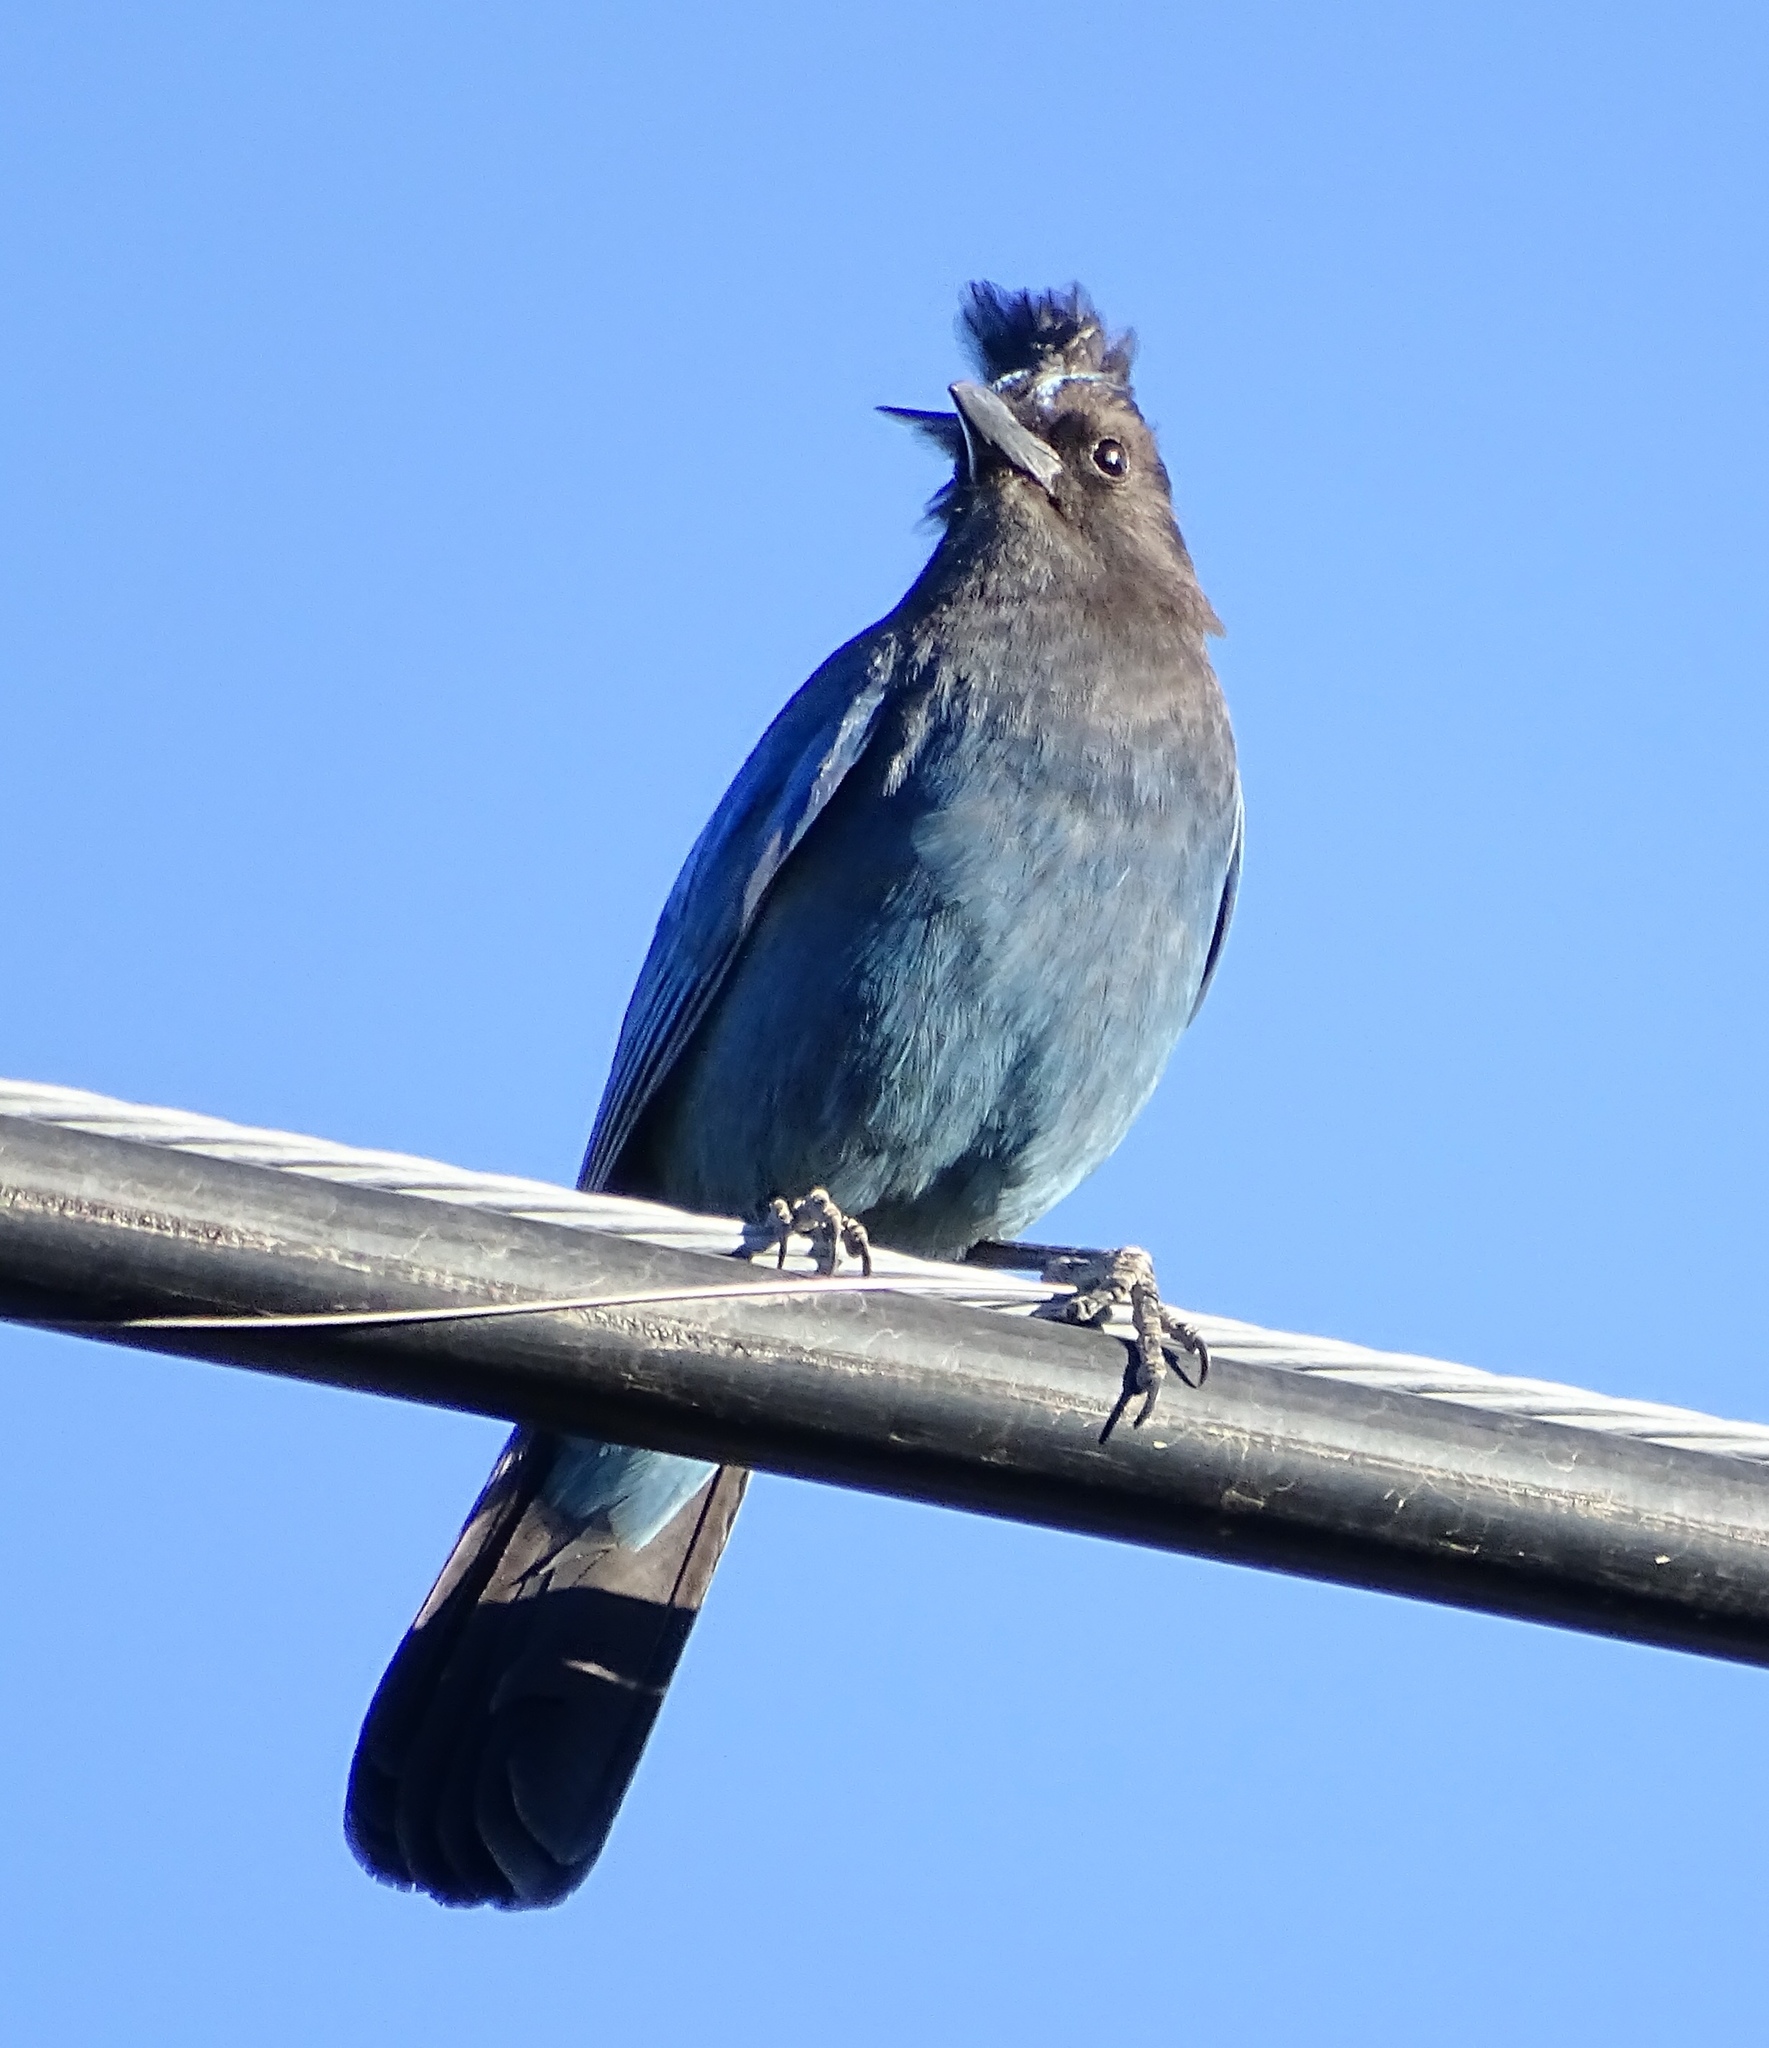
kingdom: Animalia
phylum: Chordata
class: Aves
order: Passeriformes
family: Corvidae
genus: Cyanocitta
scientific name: Cyanocitta stelleri
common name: Steller's jay
